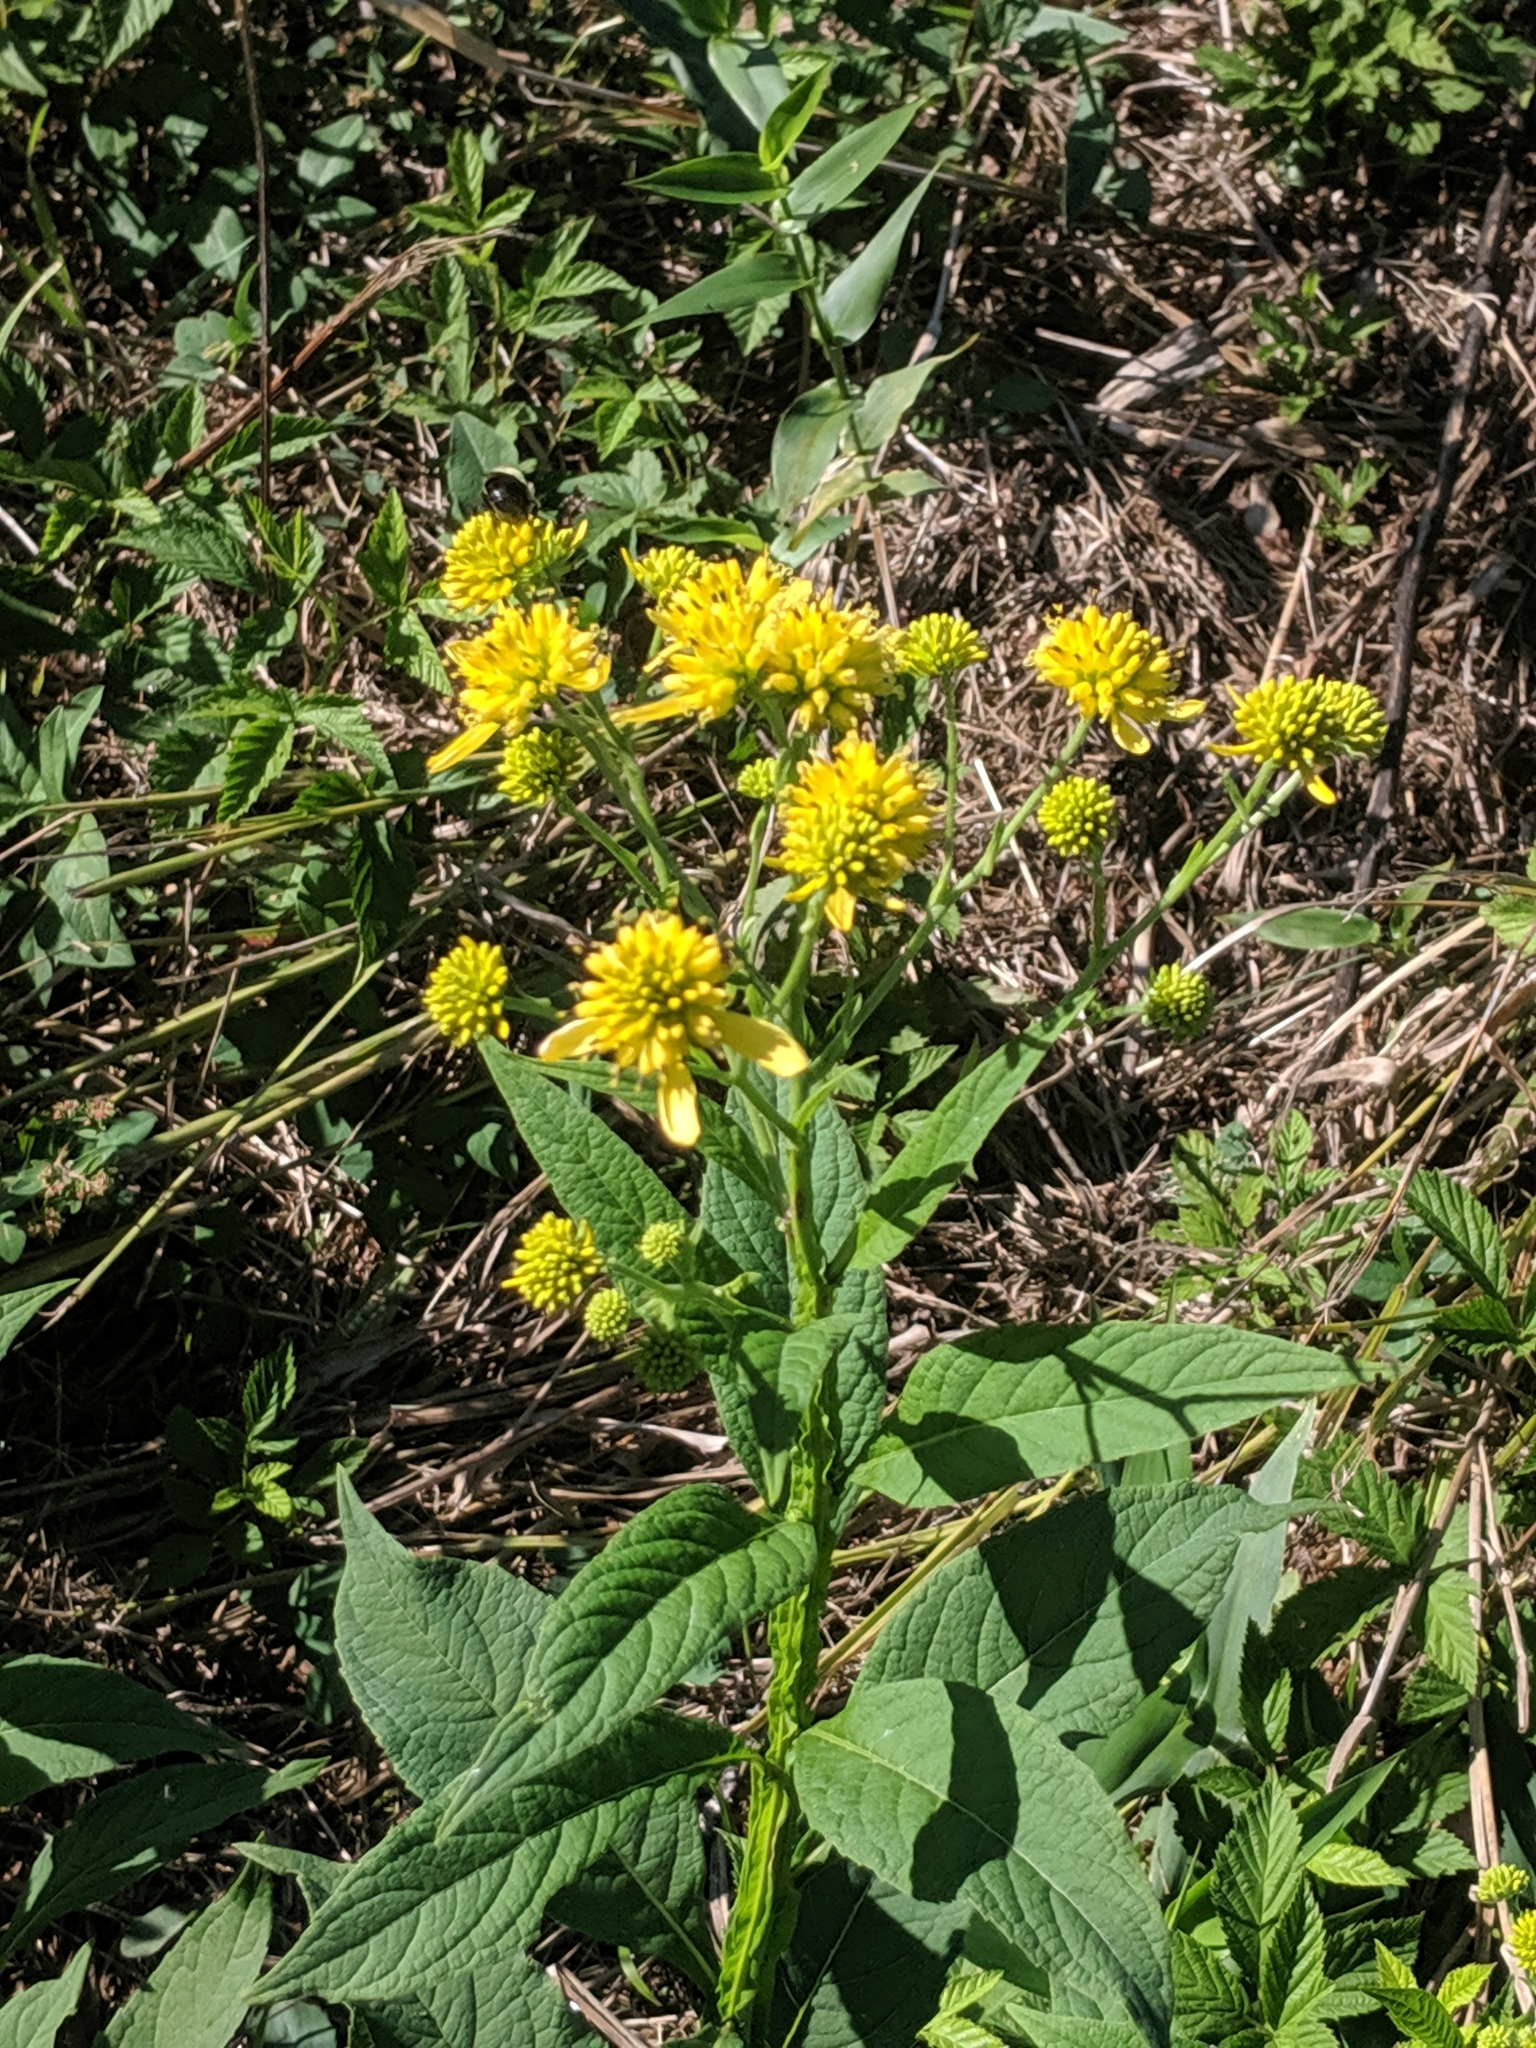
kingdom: Plantae
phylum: Tracheophyta
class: Magnoliopsida
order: Asterales
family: Asteraceae
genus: Verbesina
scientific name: Verbesina alternifolia
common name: Wingstem
